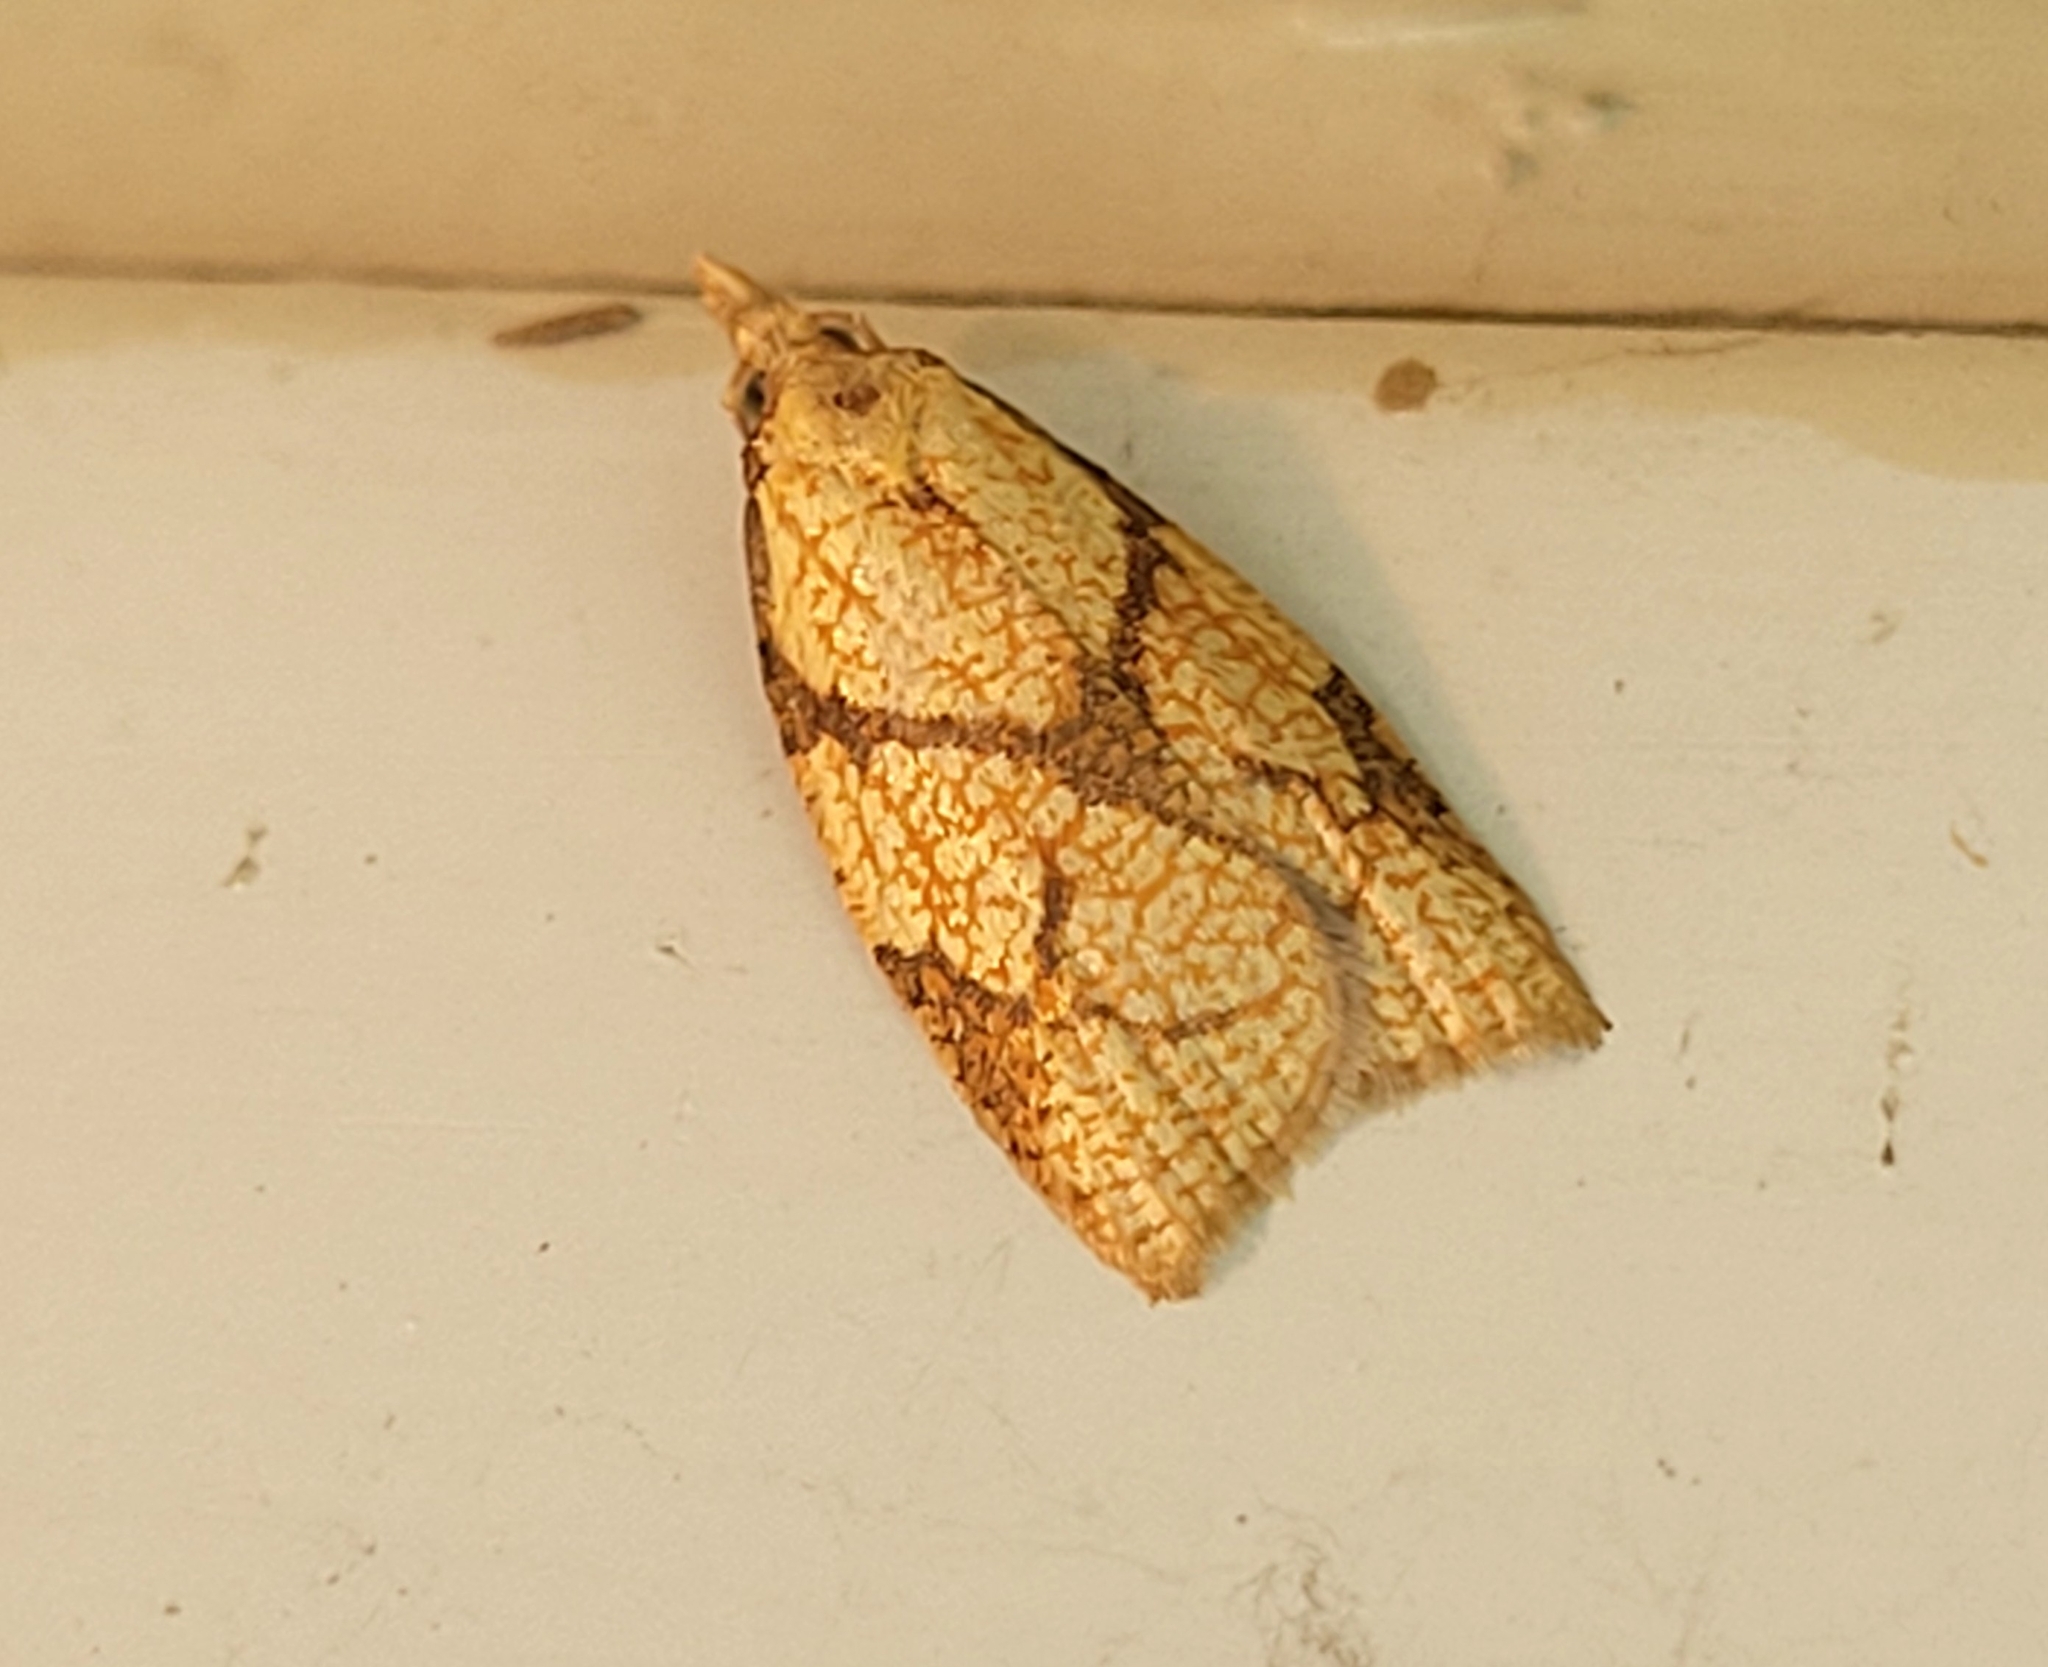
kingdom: Animalia
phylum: Arthropoda
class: Insecta
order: Lepidoptera
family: Tortricidae
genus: Cenopis
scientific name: Cenopis reticulatana
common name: Reticulated fruitworm moth
